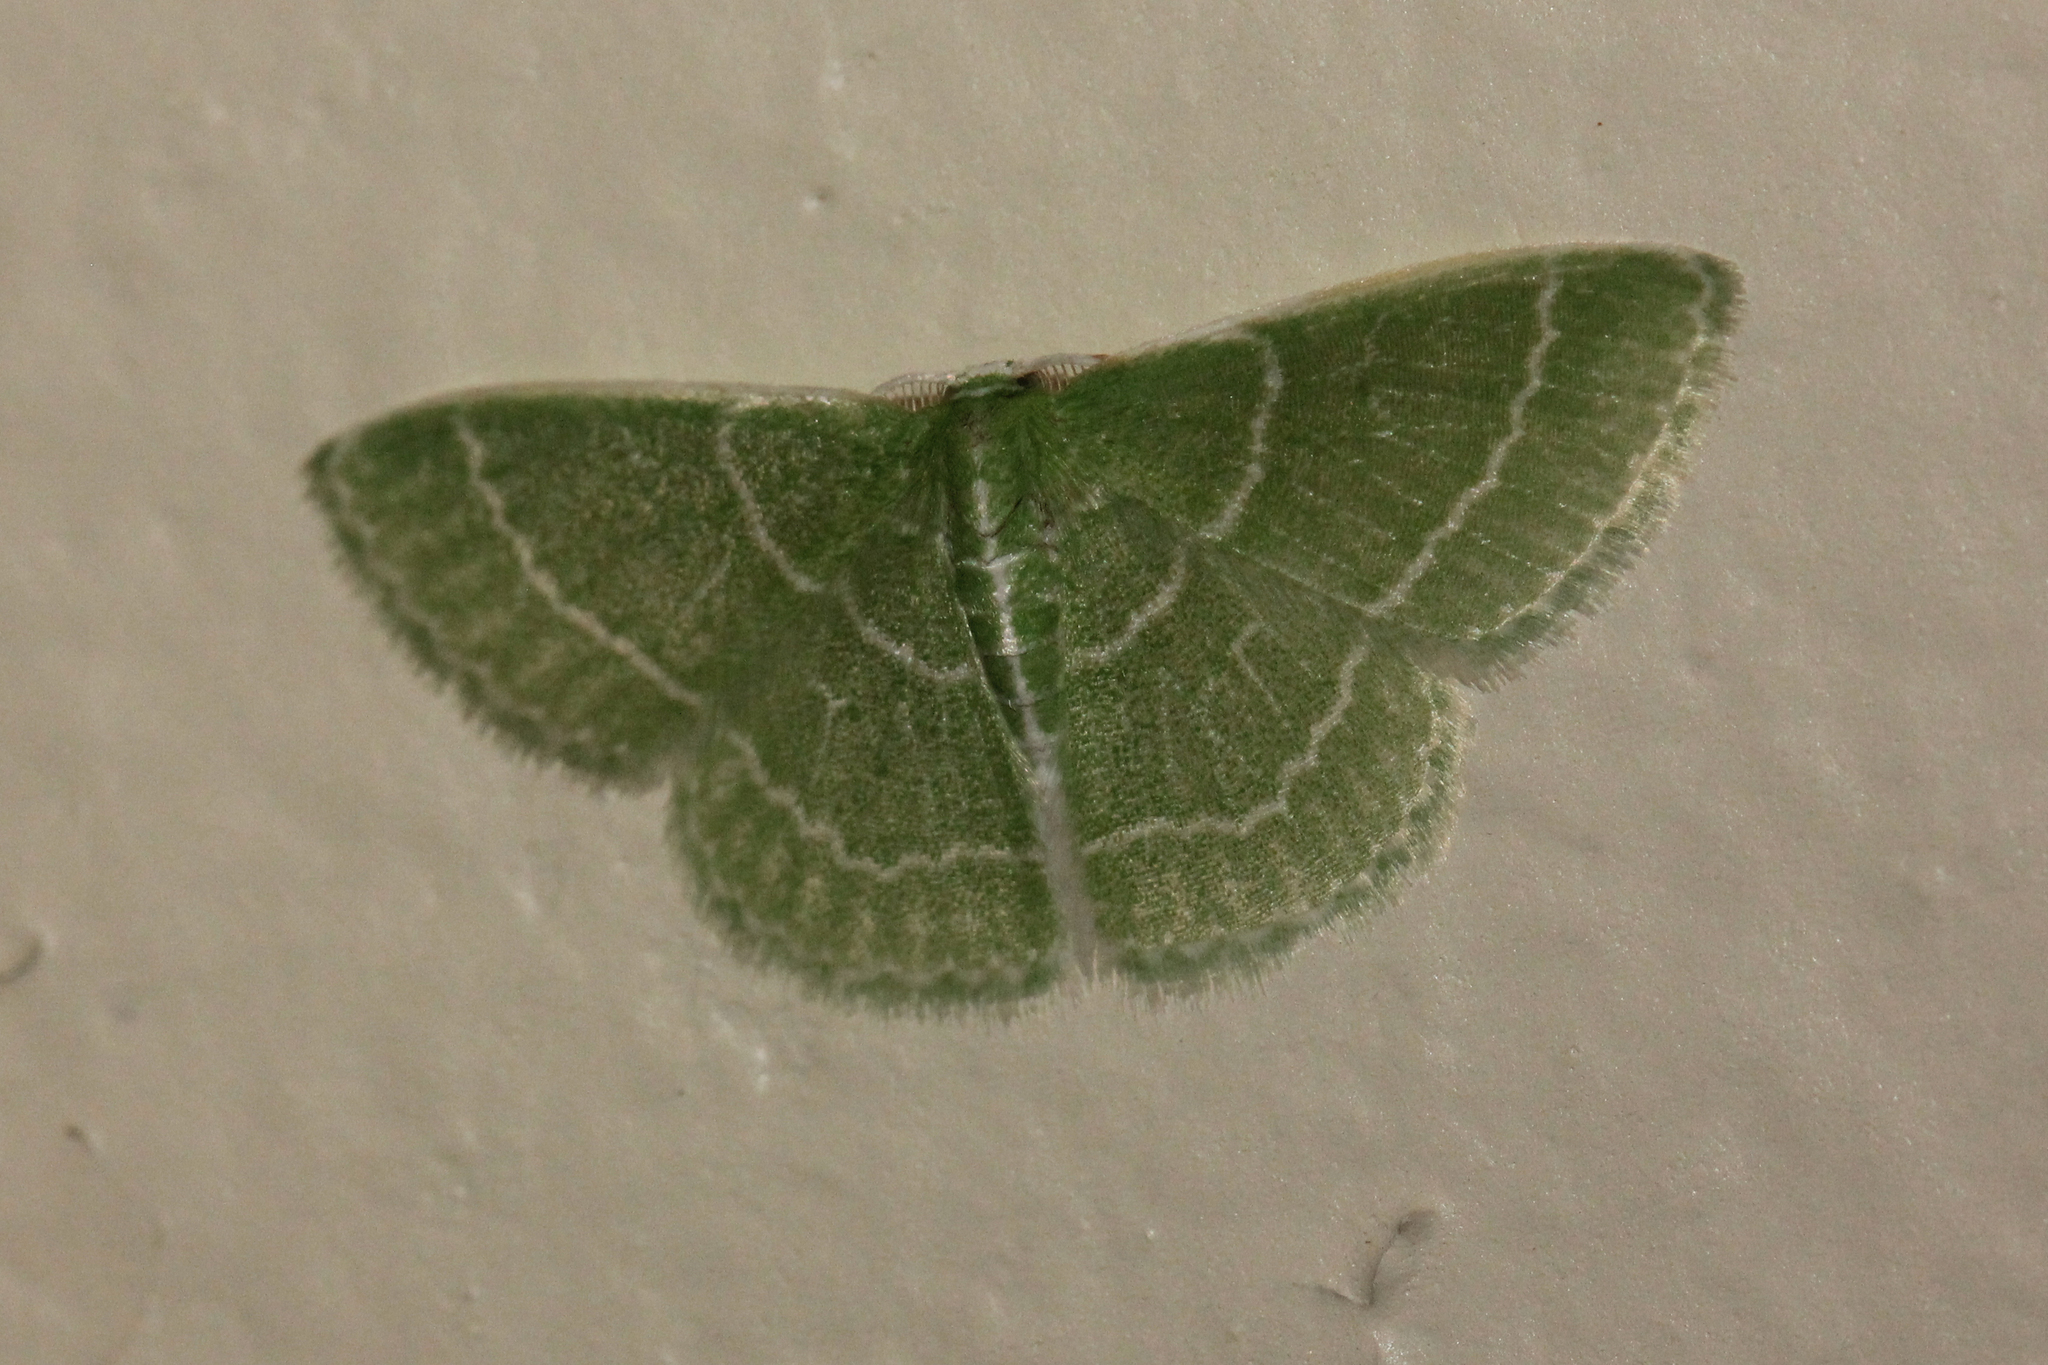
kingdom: Animalia
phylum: Arthropoda
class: Insecta
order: Lepidoptera
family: Geometridae
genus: Synchlora
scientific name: Synchlora aerata
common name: Wavy-lined emerald
